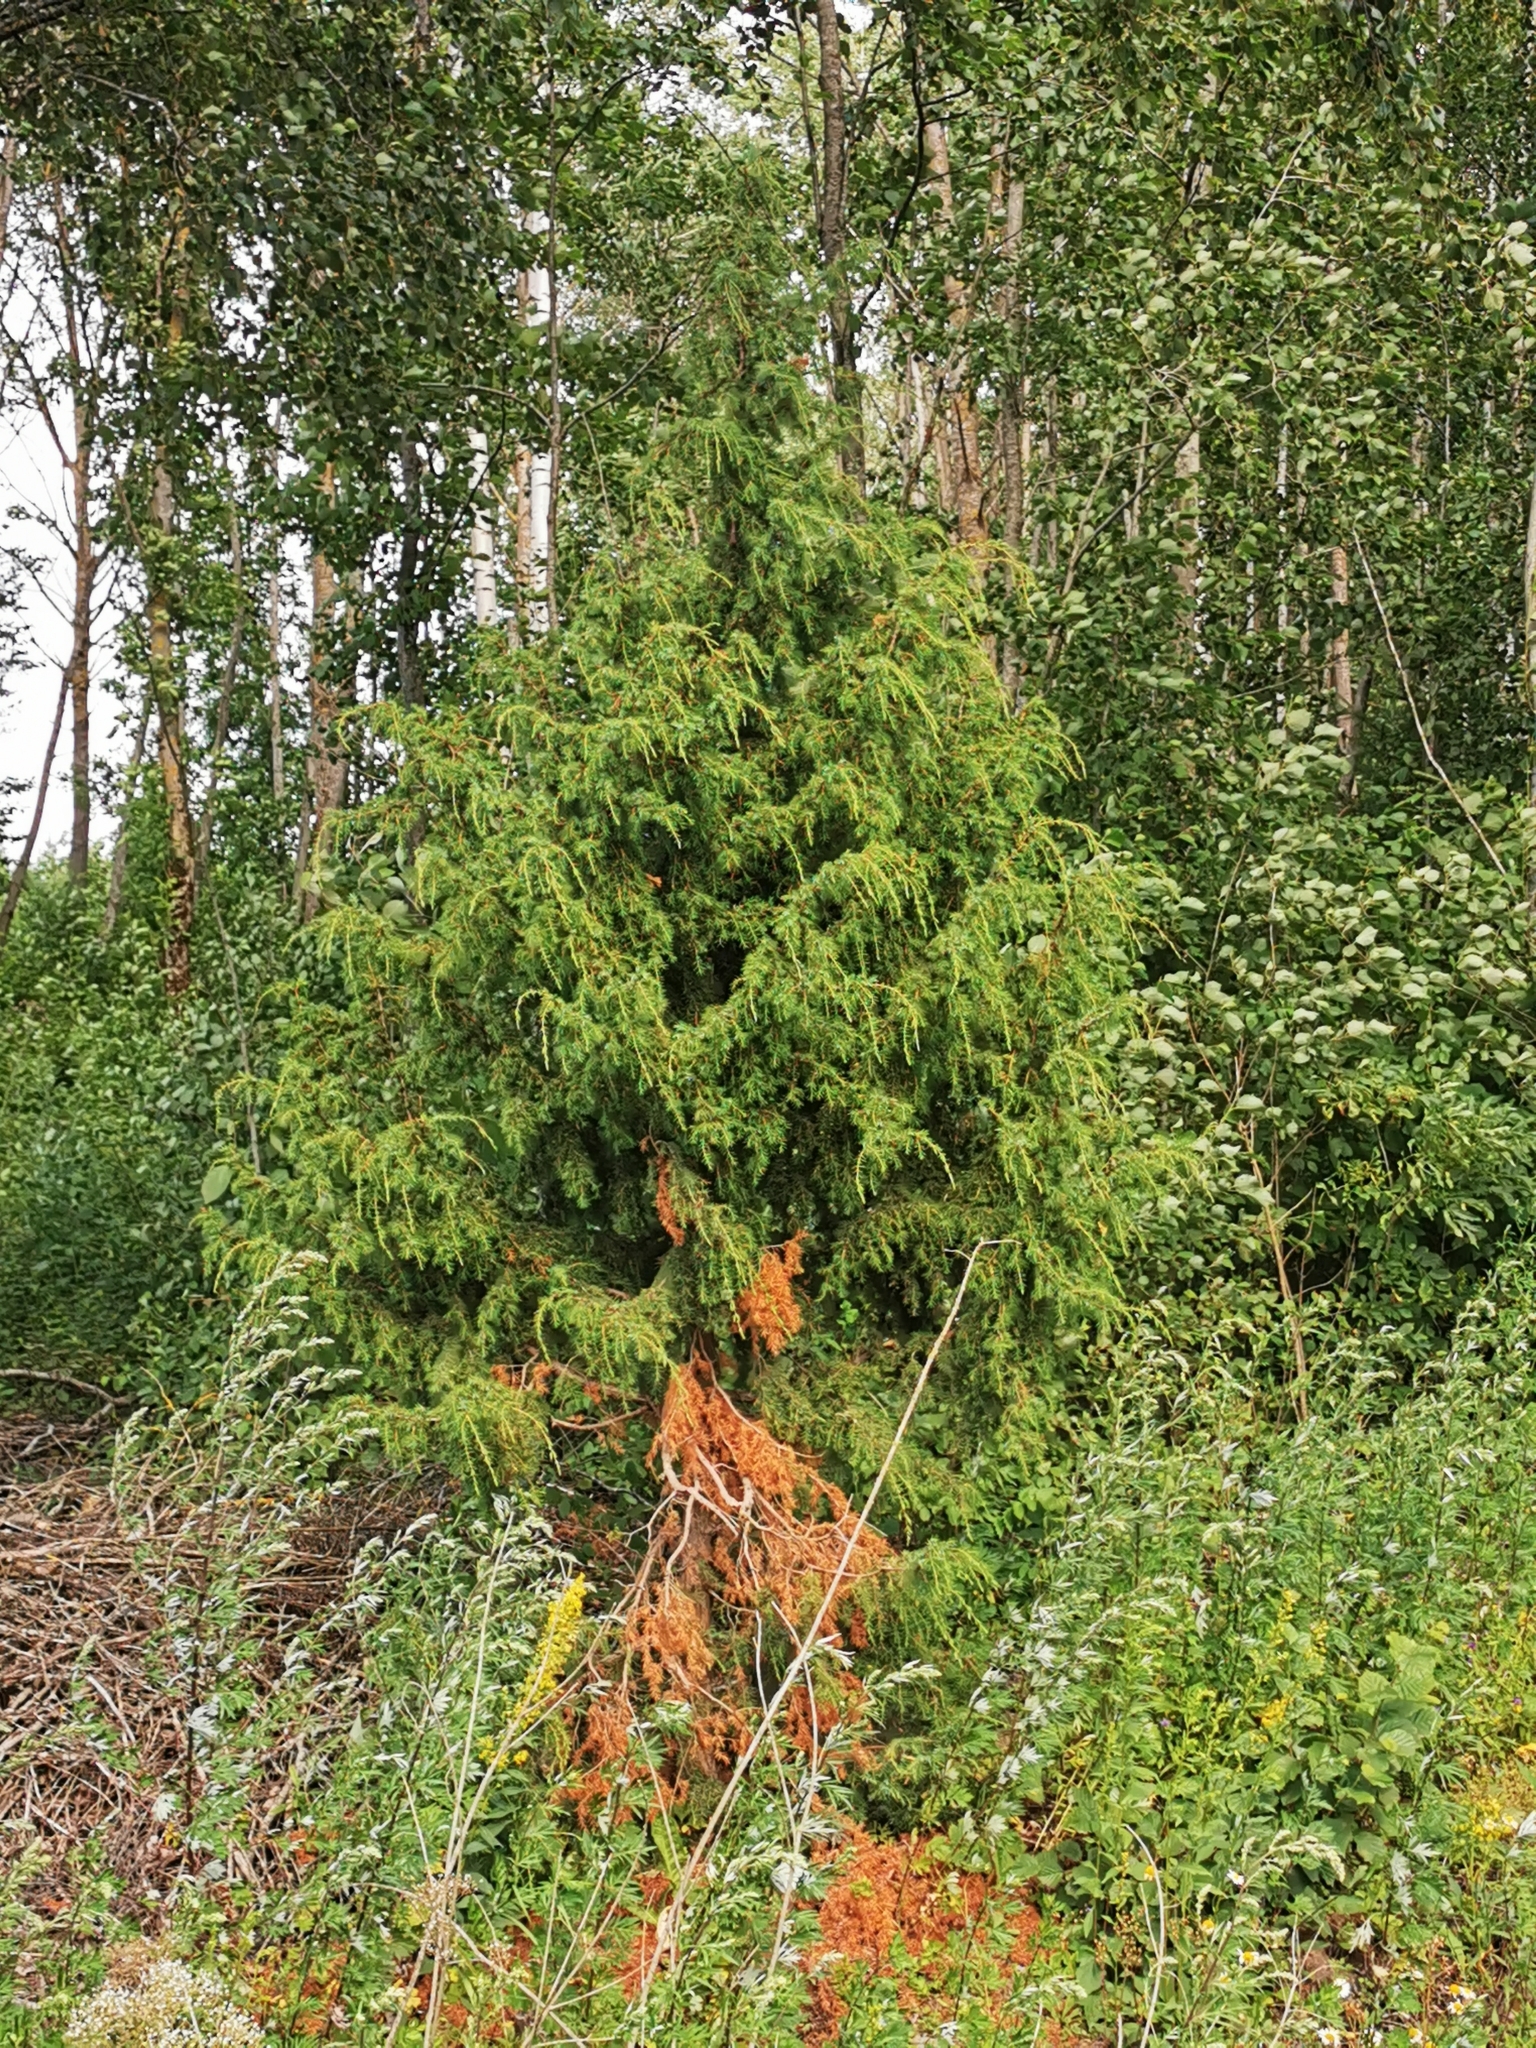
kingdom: Plantae
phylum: Tracheophyta
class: Pinopsida
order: Pinales
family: Cupressaceae
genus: Juniperus
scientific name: Juniperus communis
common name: Common juniper
